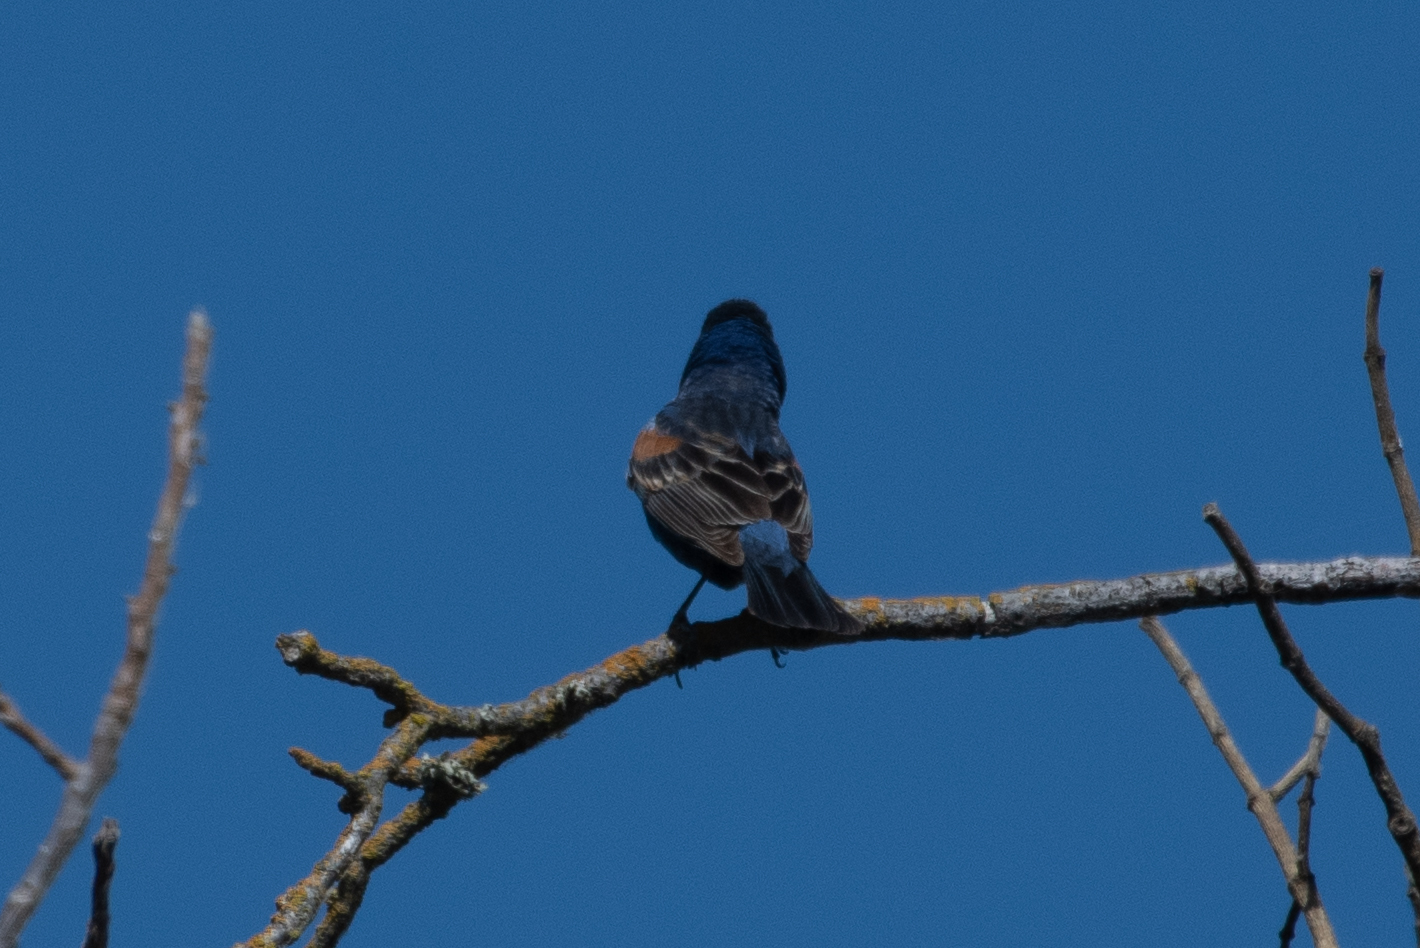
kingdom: Animalia
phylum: Chordata
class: Aves
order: Passeriformes
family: Cardinalidae
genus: Passerina
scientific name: Passerina caerulea
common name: Blue grosbeak
